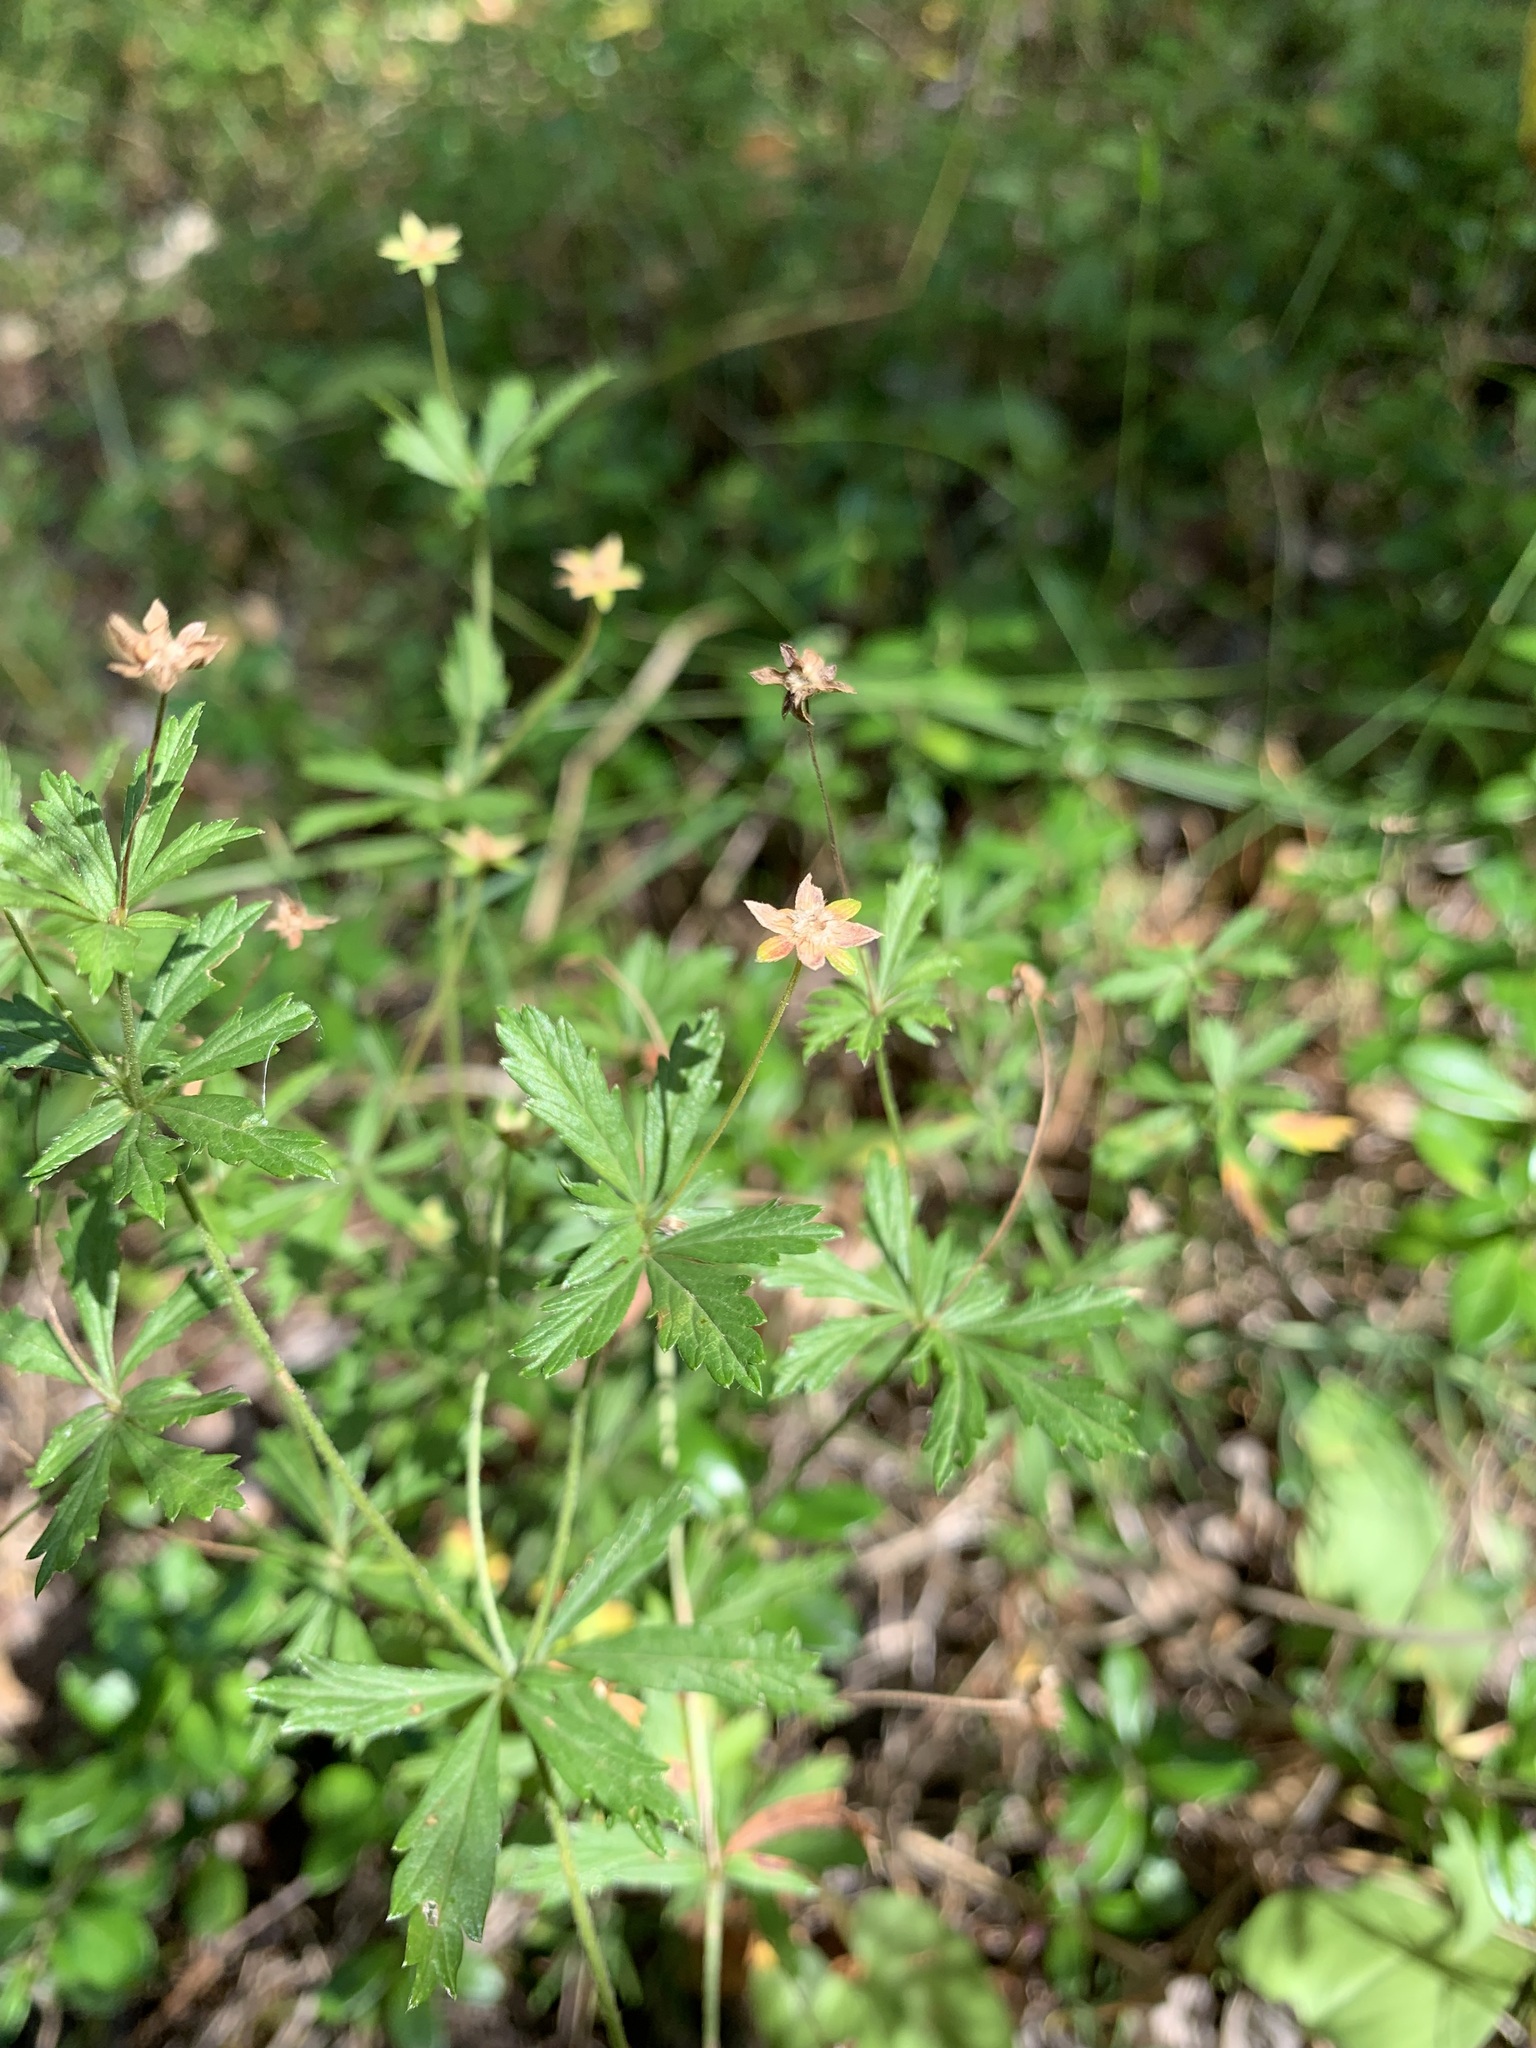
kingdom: Plantae
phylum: Tracheophyta
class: Magnoliopsida
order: Rosales
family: Rosaceae
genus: Potentilla
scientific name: Potentilla erecta
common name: Tormentil
